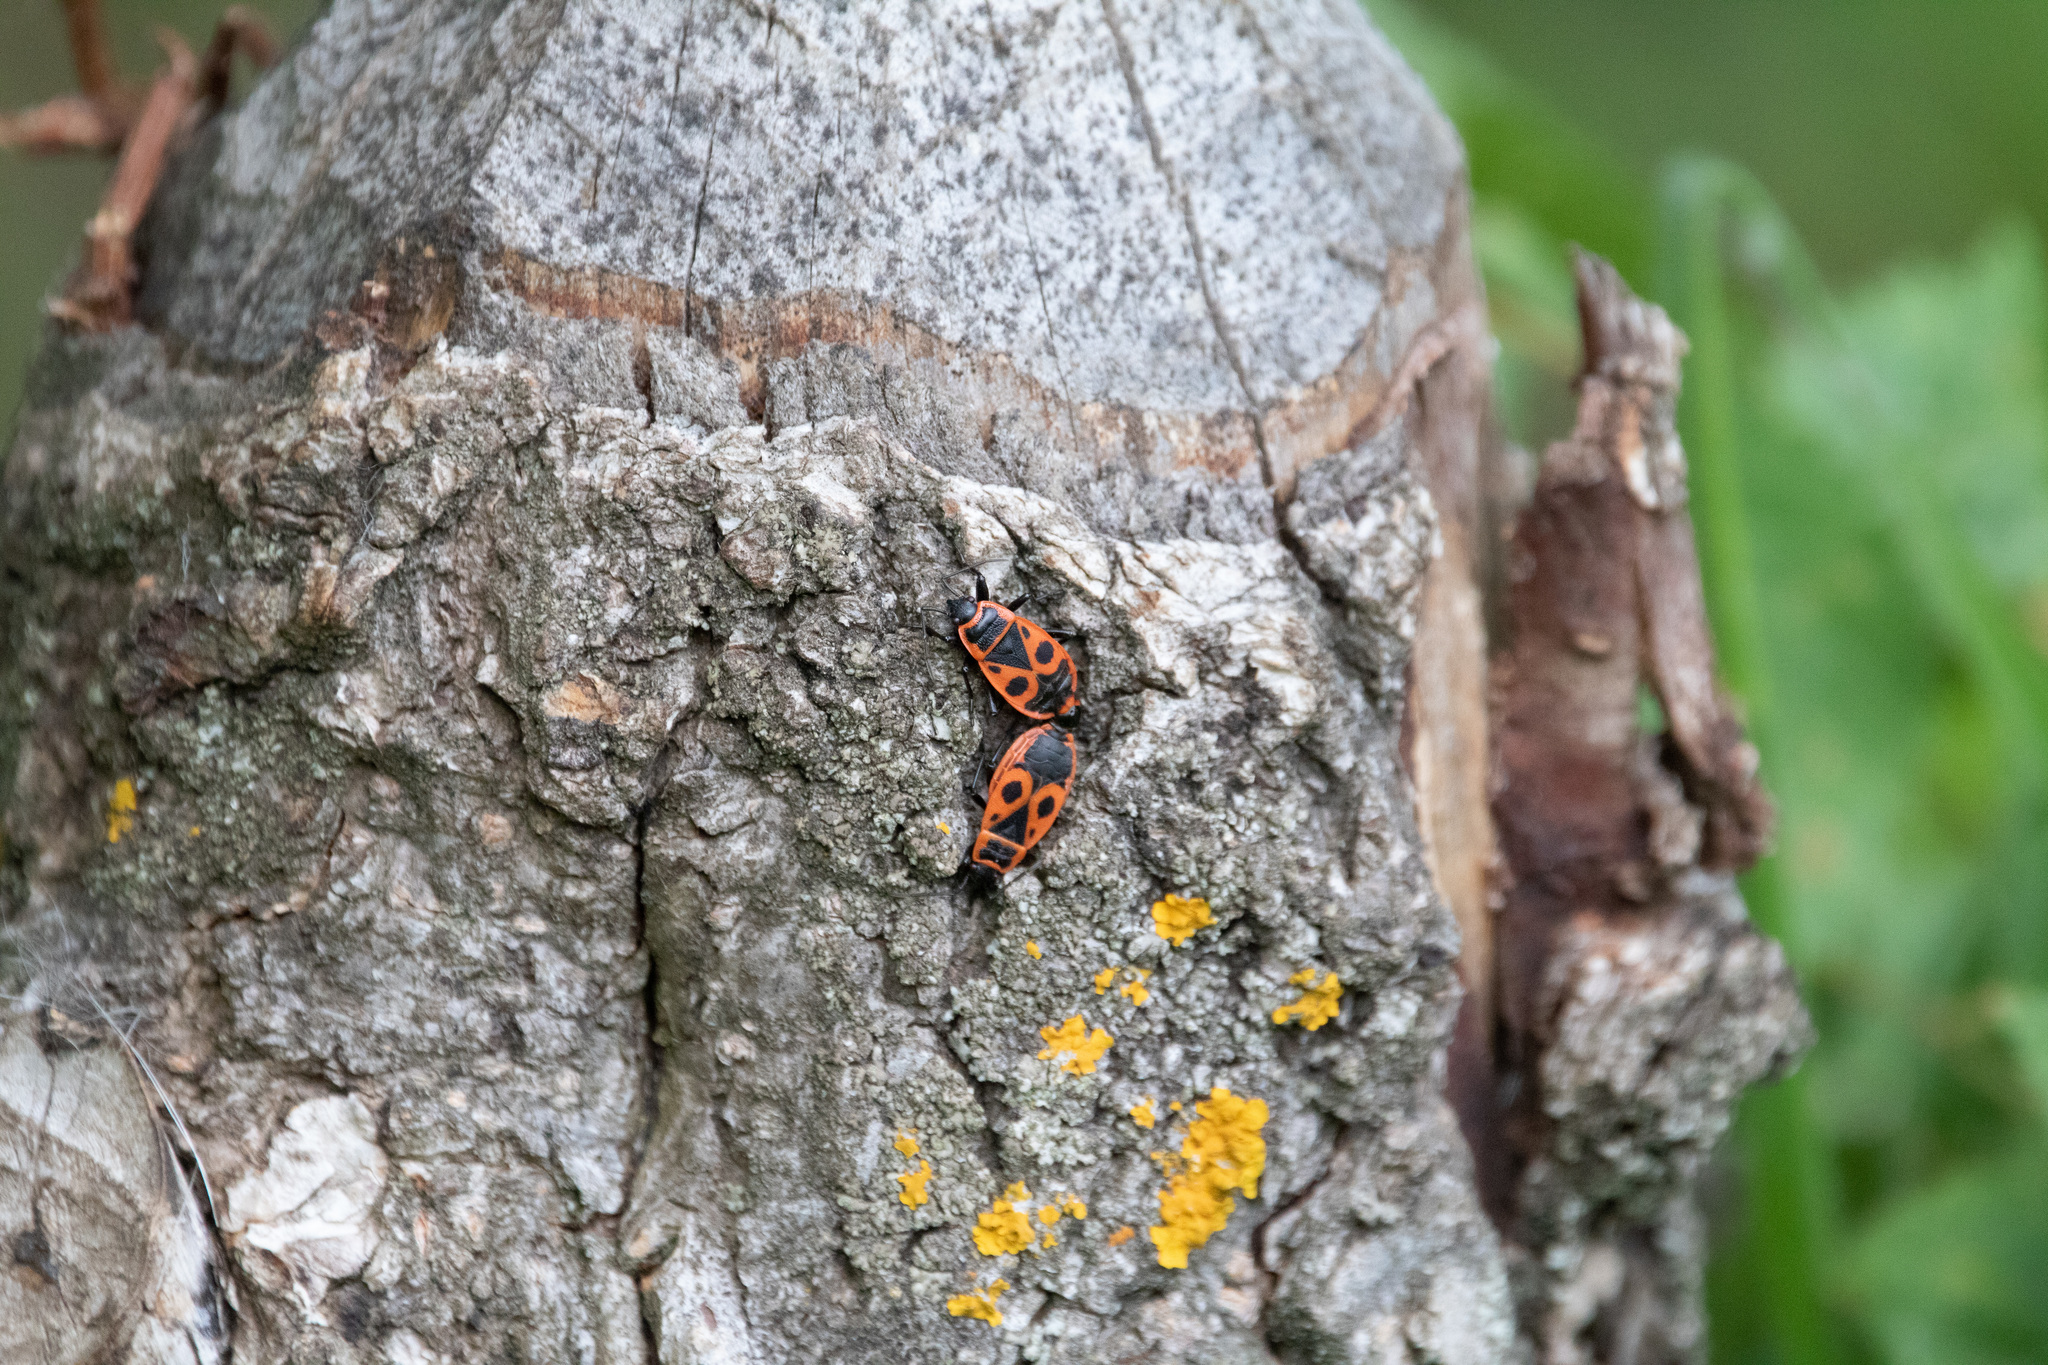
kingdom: Animalia
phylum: Arthropoda
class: Insecta
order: Hemiptera
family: Pyrrhocoridae
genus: Pyrrhocoris
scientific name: Pyrrhocoris apterus
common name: Firebug
